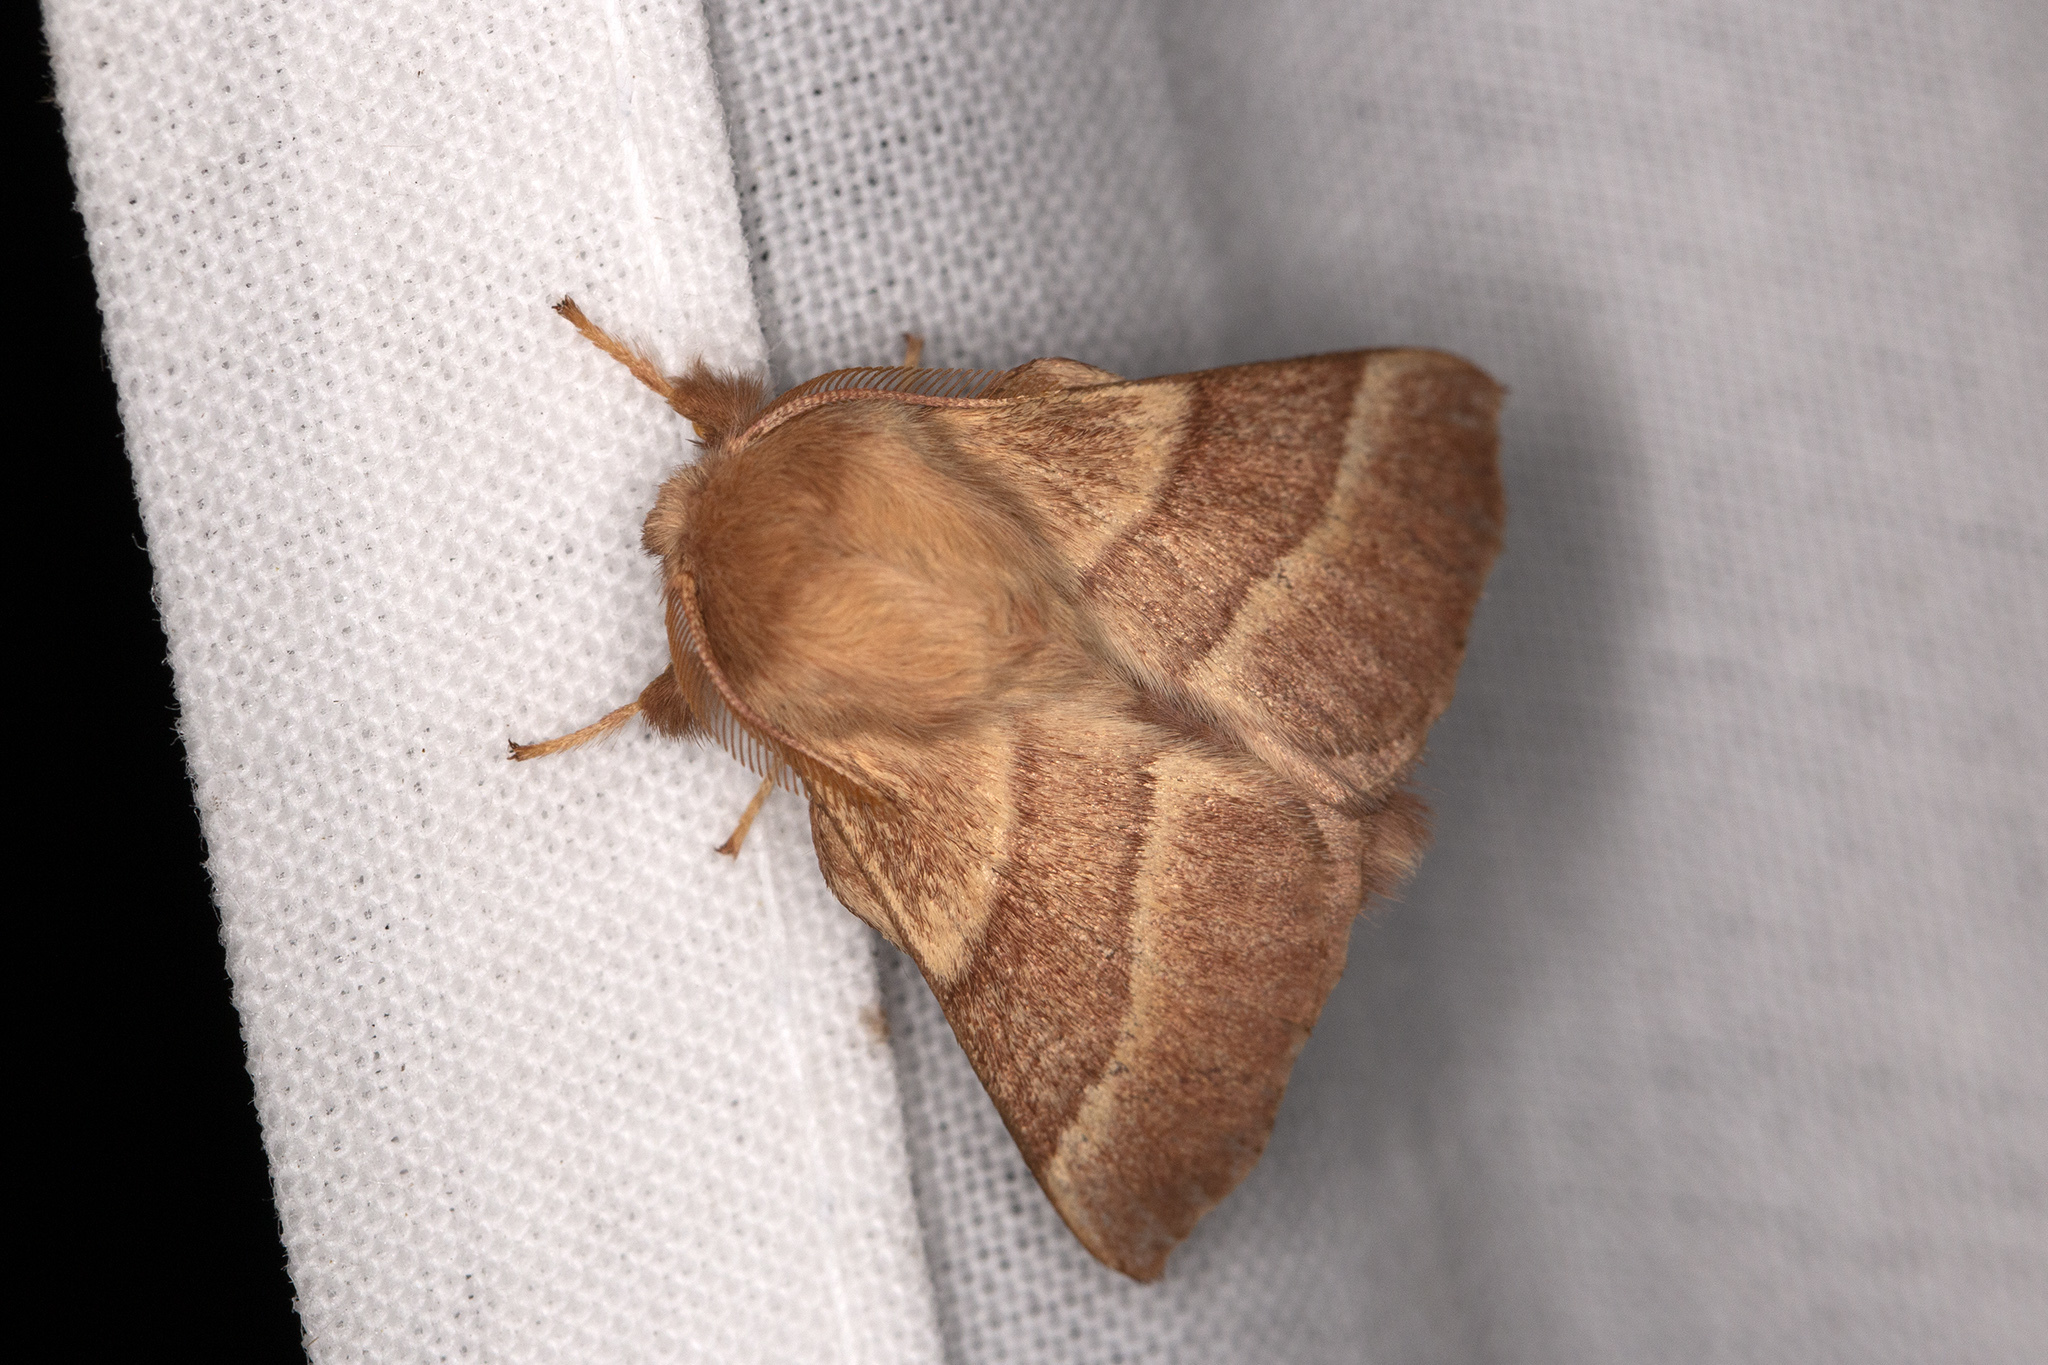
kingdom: Animalia
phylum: Arthropoda
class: Insecta
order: Lepidoptera
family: Lasiocampidae
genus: Malacosoma
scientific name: Malacosoma neustria
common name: The lackey
